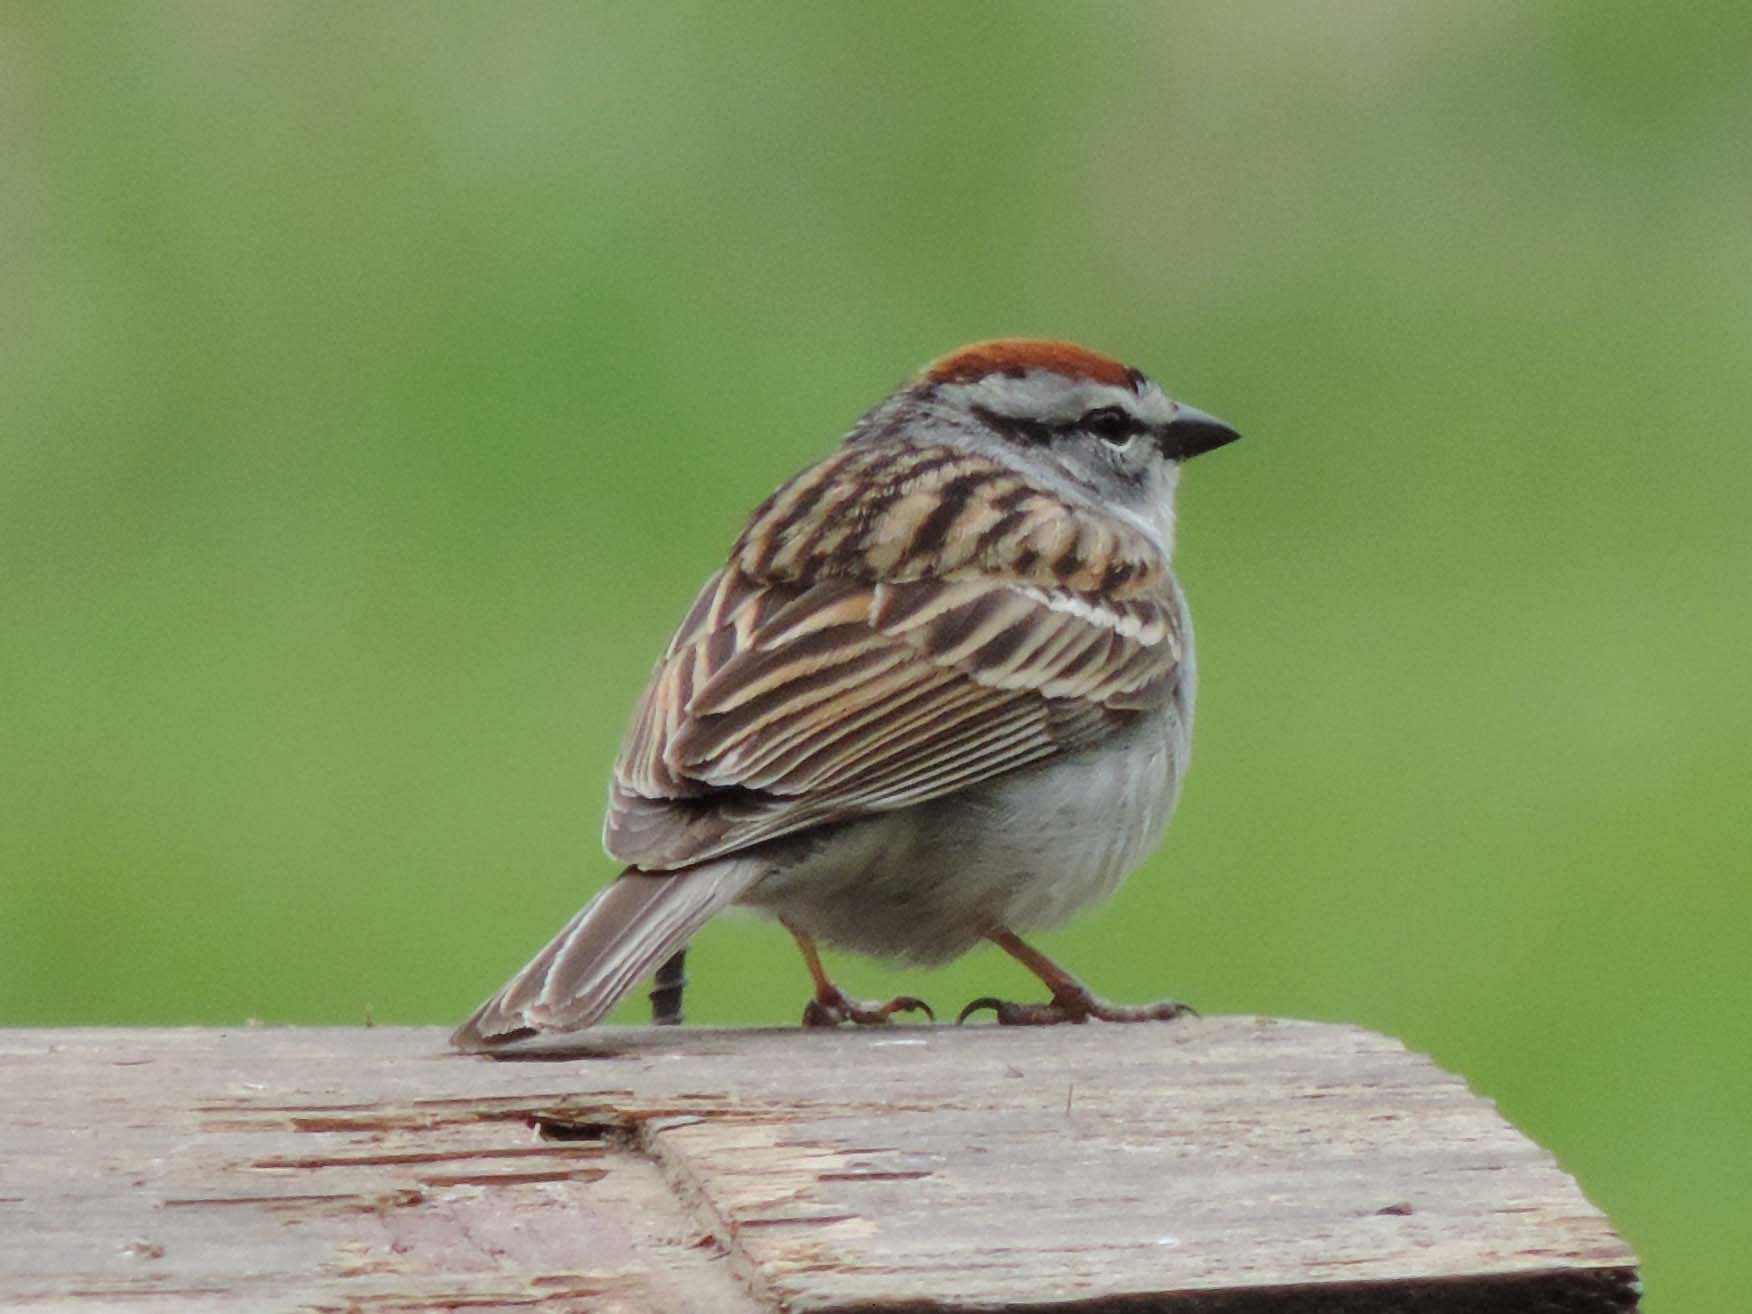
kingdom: Animalia
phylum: Chordata
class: Aves
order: Passeriformes
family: Passerellidae
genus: Spizella
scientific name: Spizella passerina
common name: Chipping sparrow
